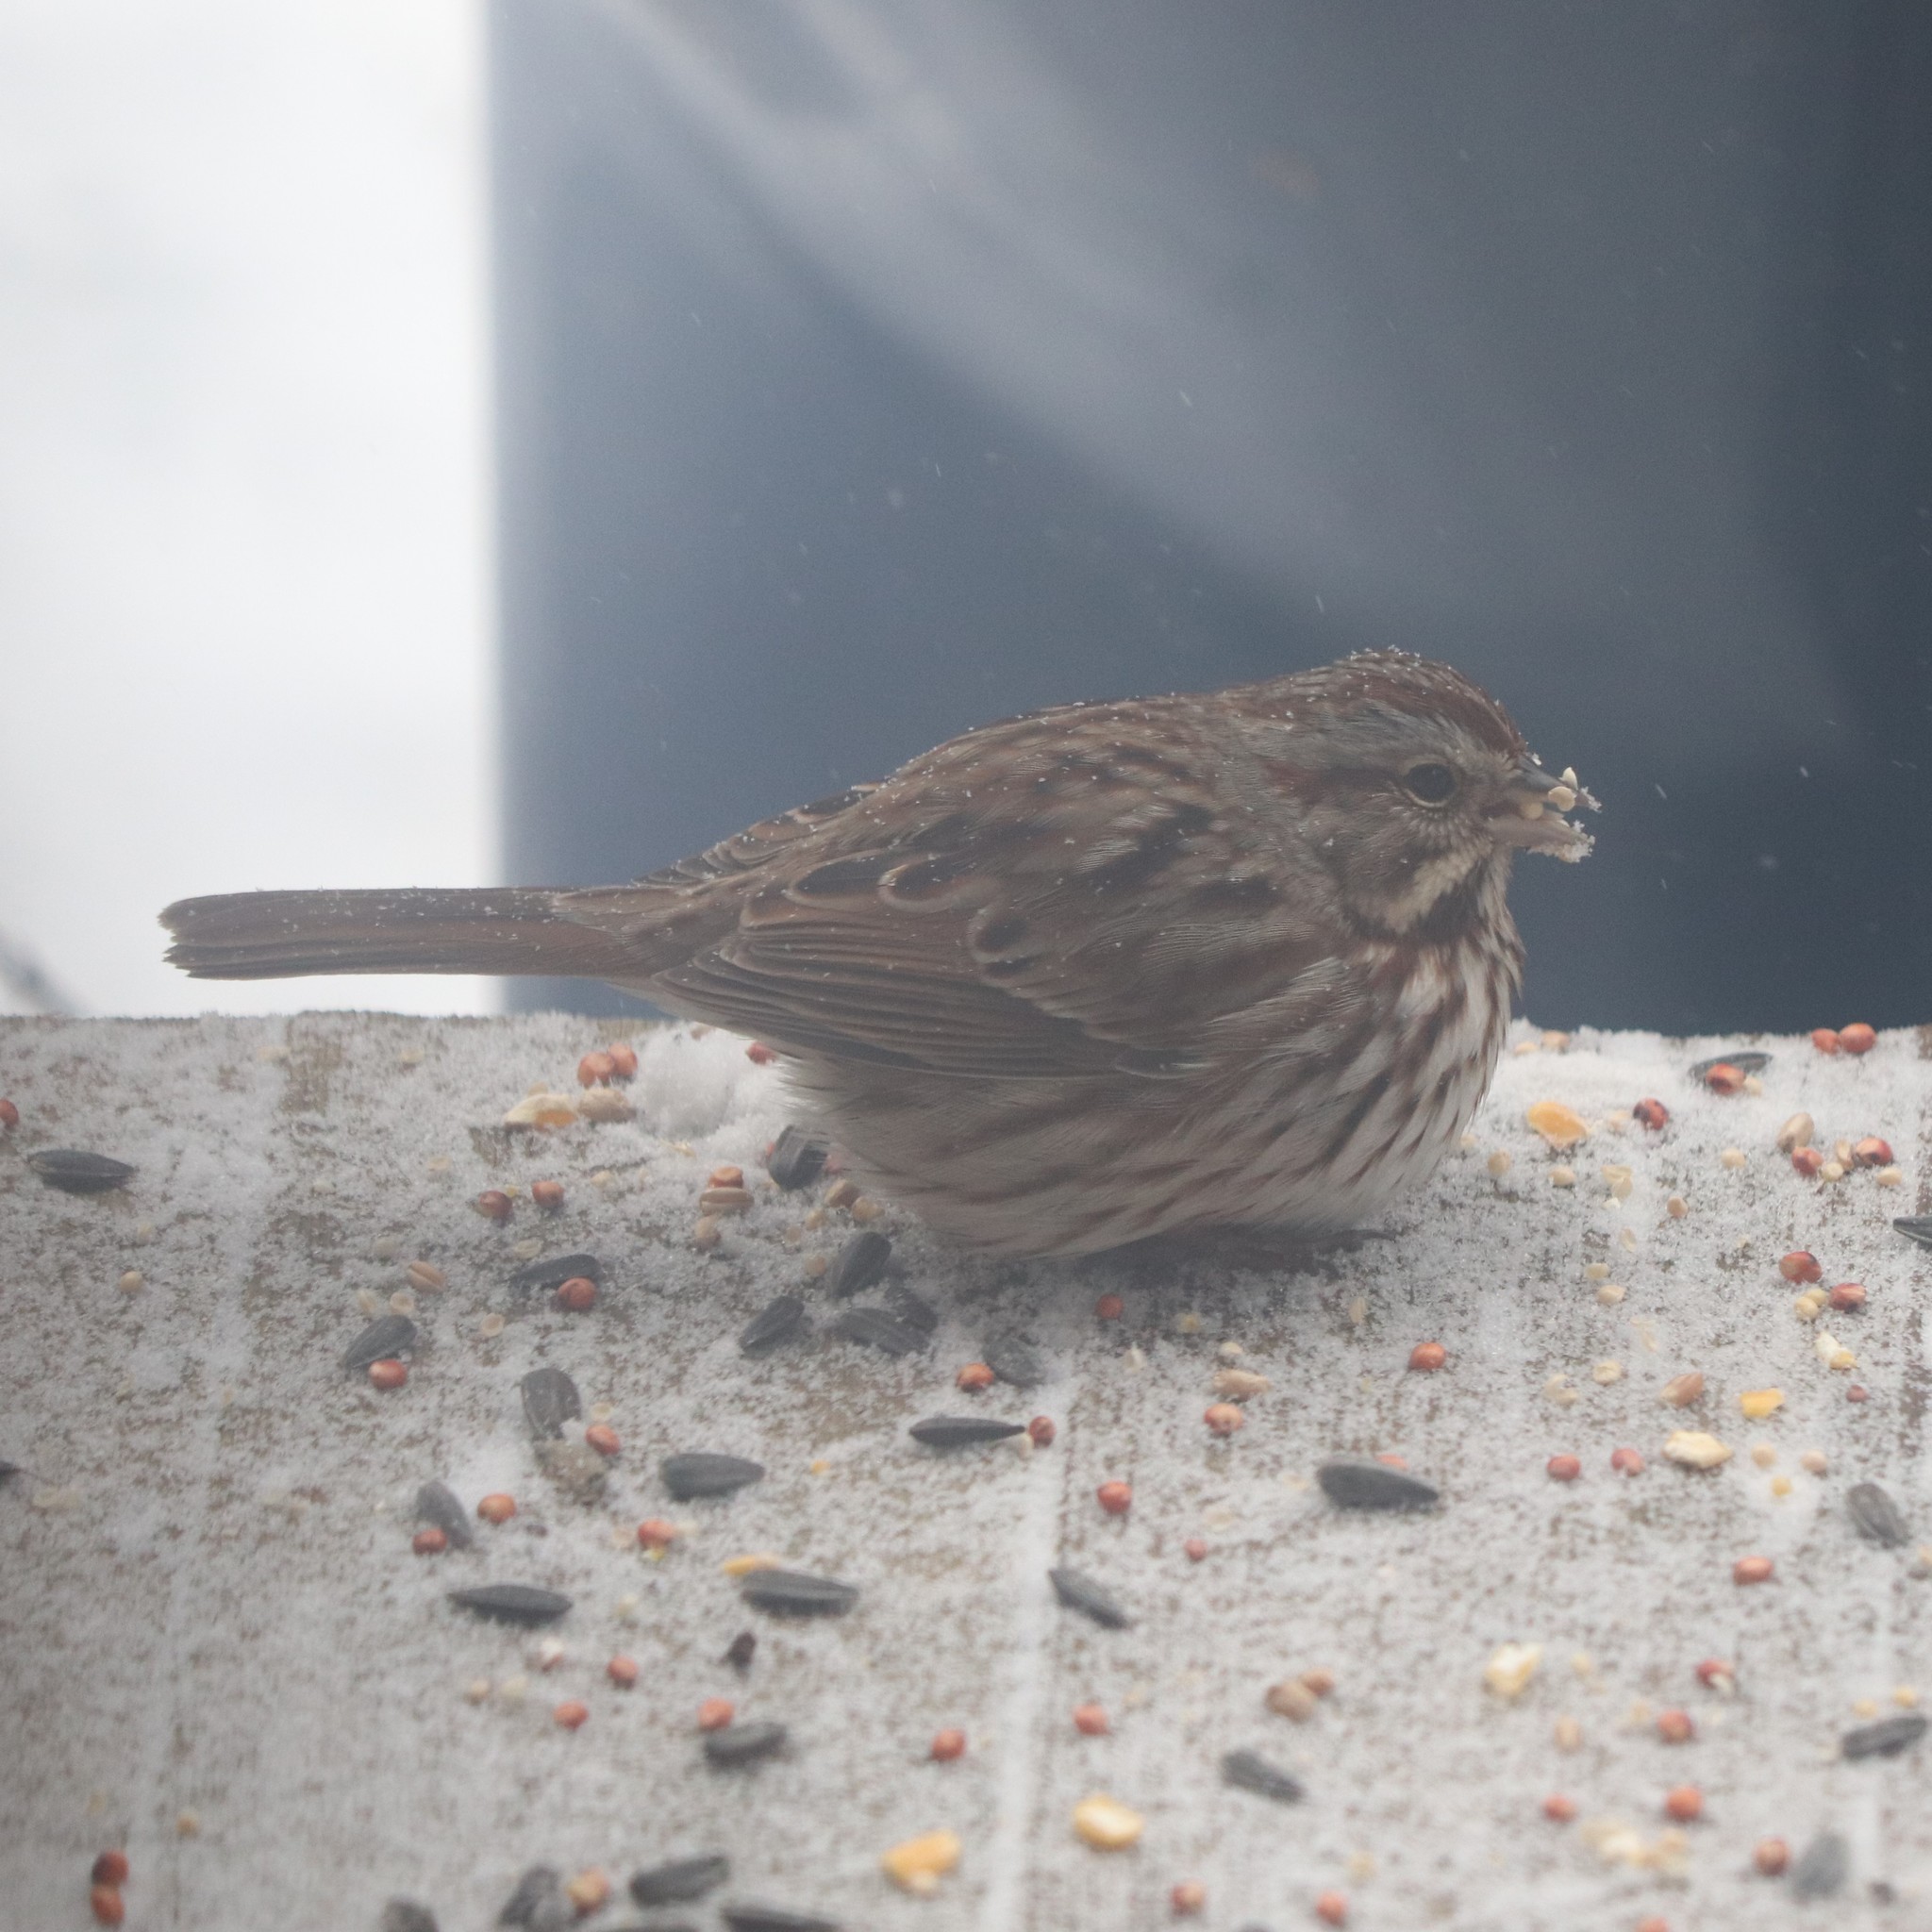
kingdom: Animalia
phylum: Chordata
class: Aves
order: Passeriformes
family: Passerellidae
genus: Melospiza
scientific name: Melospiza melodia
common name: Song sparrow
